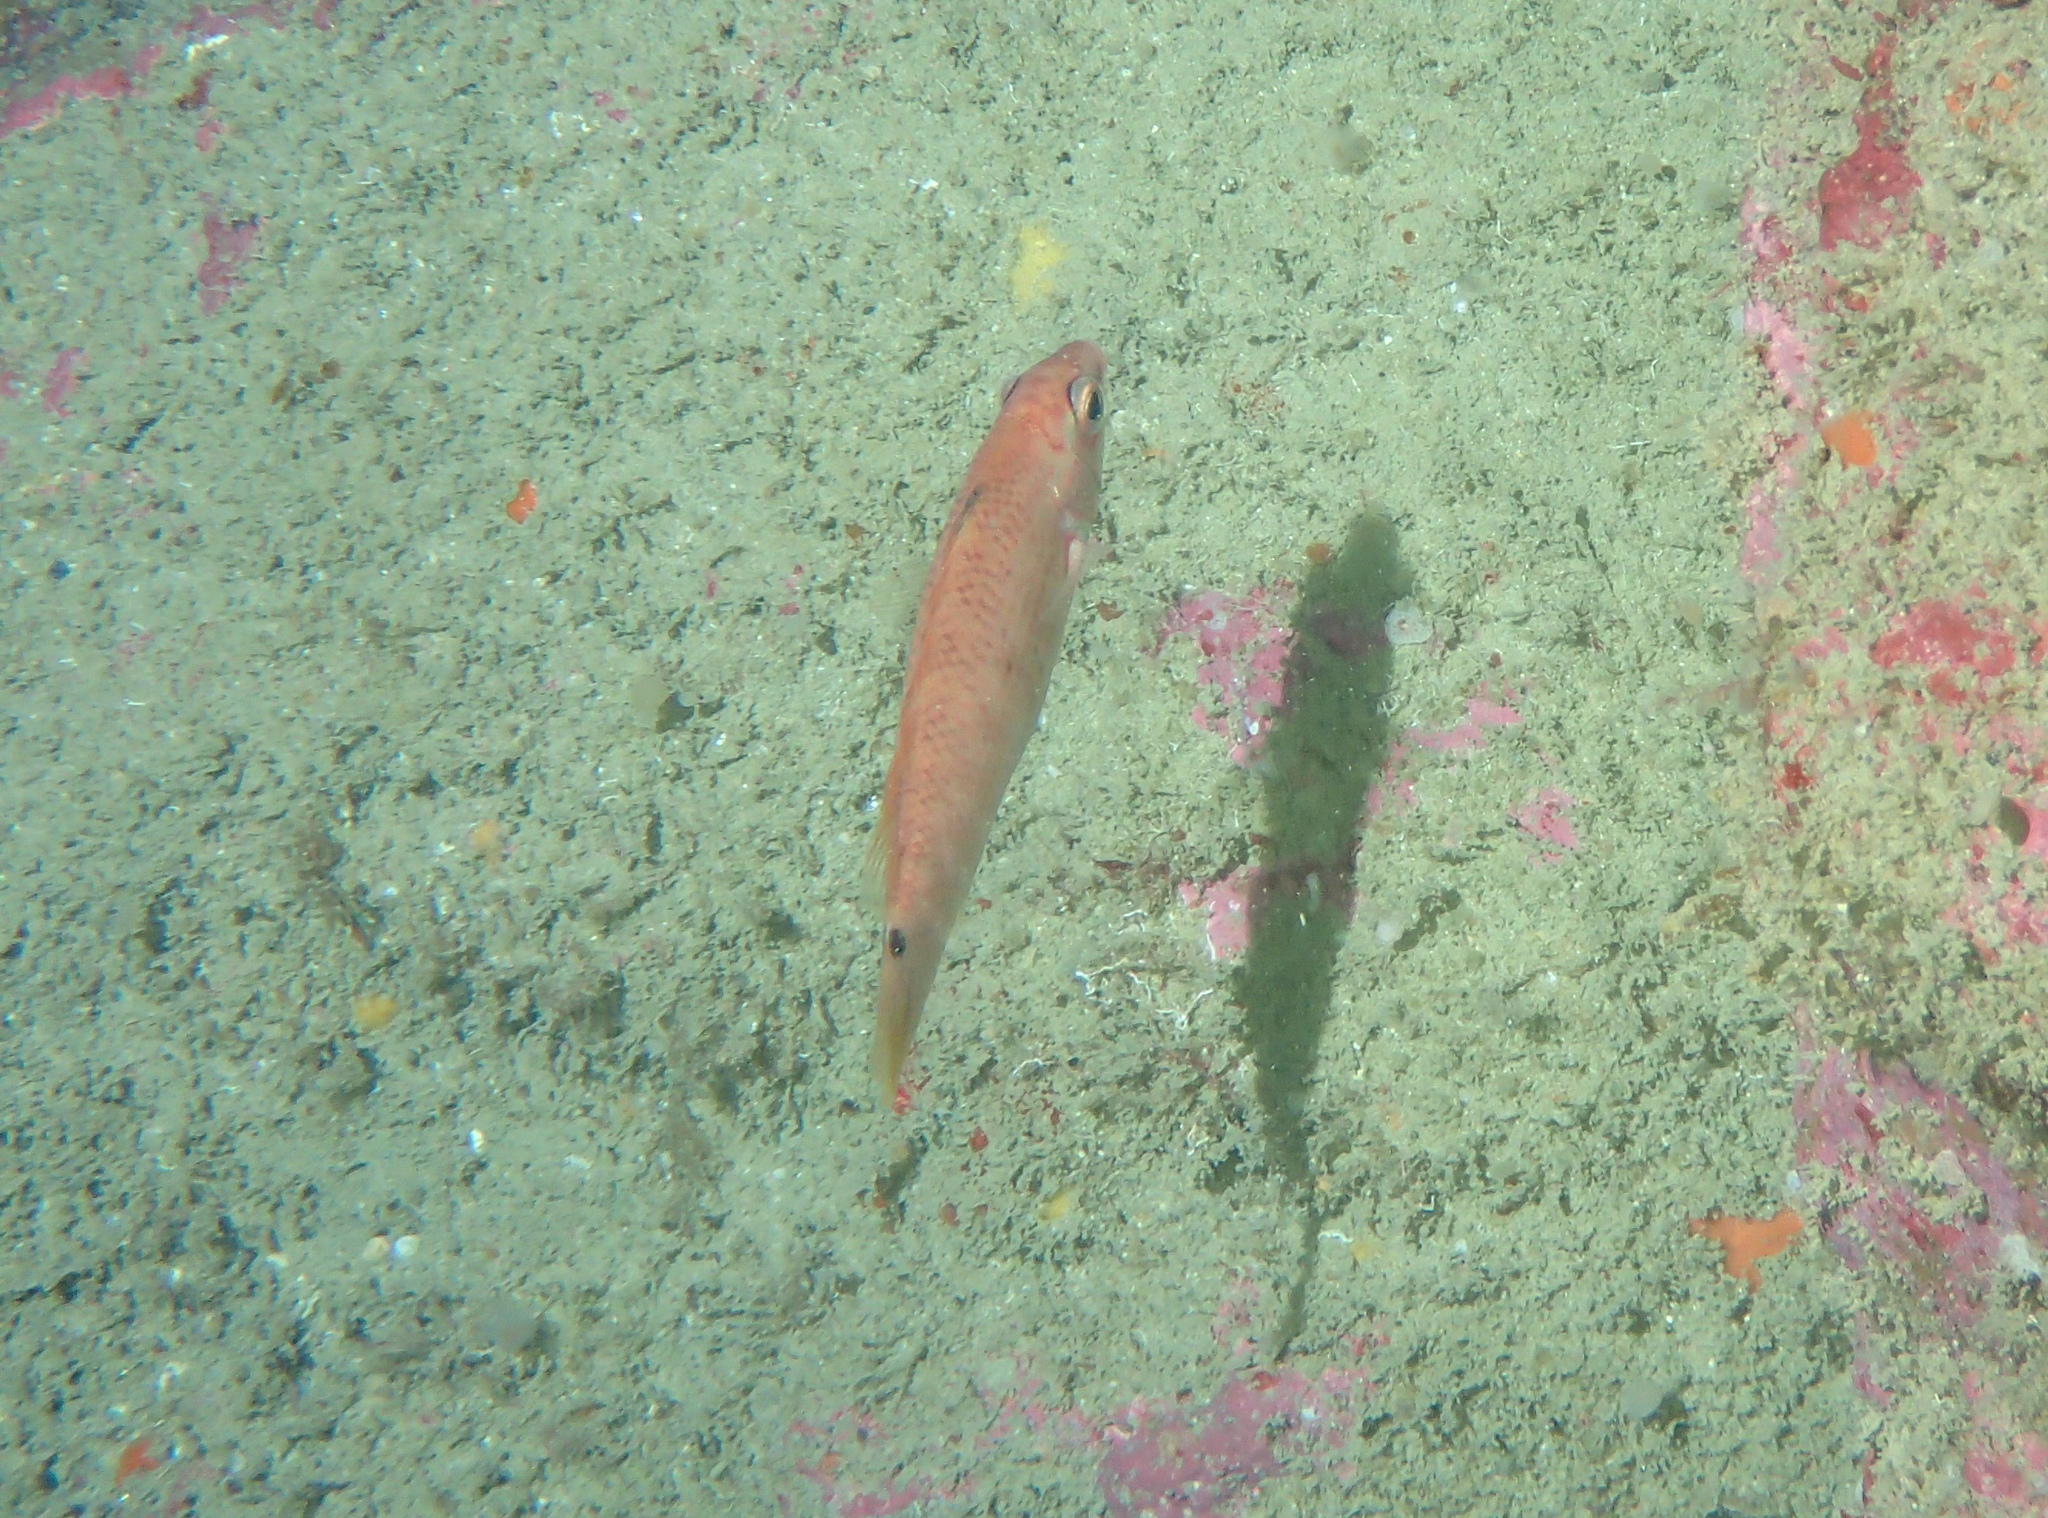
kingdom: Animalia
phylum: Chordata
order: Perciformes
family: Labridae
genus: Ctenolabrus
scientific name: Ctenolabrus rupestris
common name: Goldsinny
